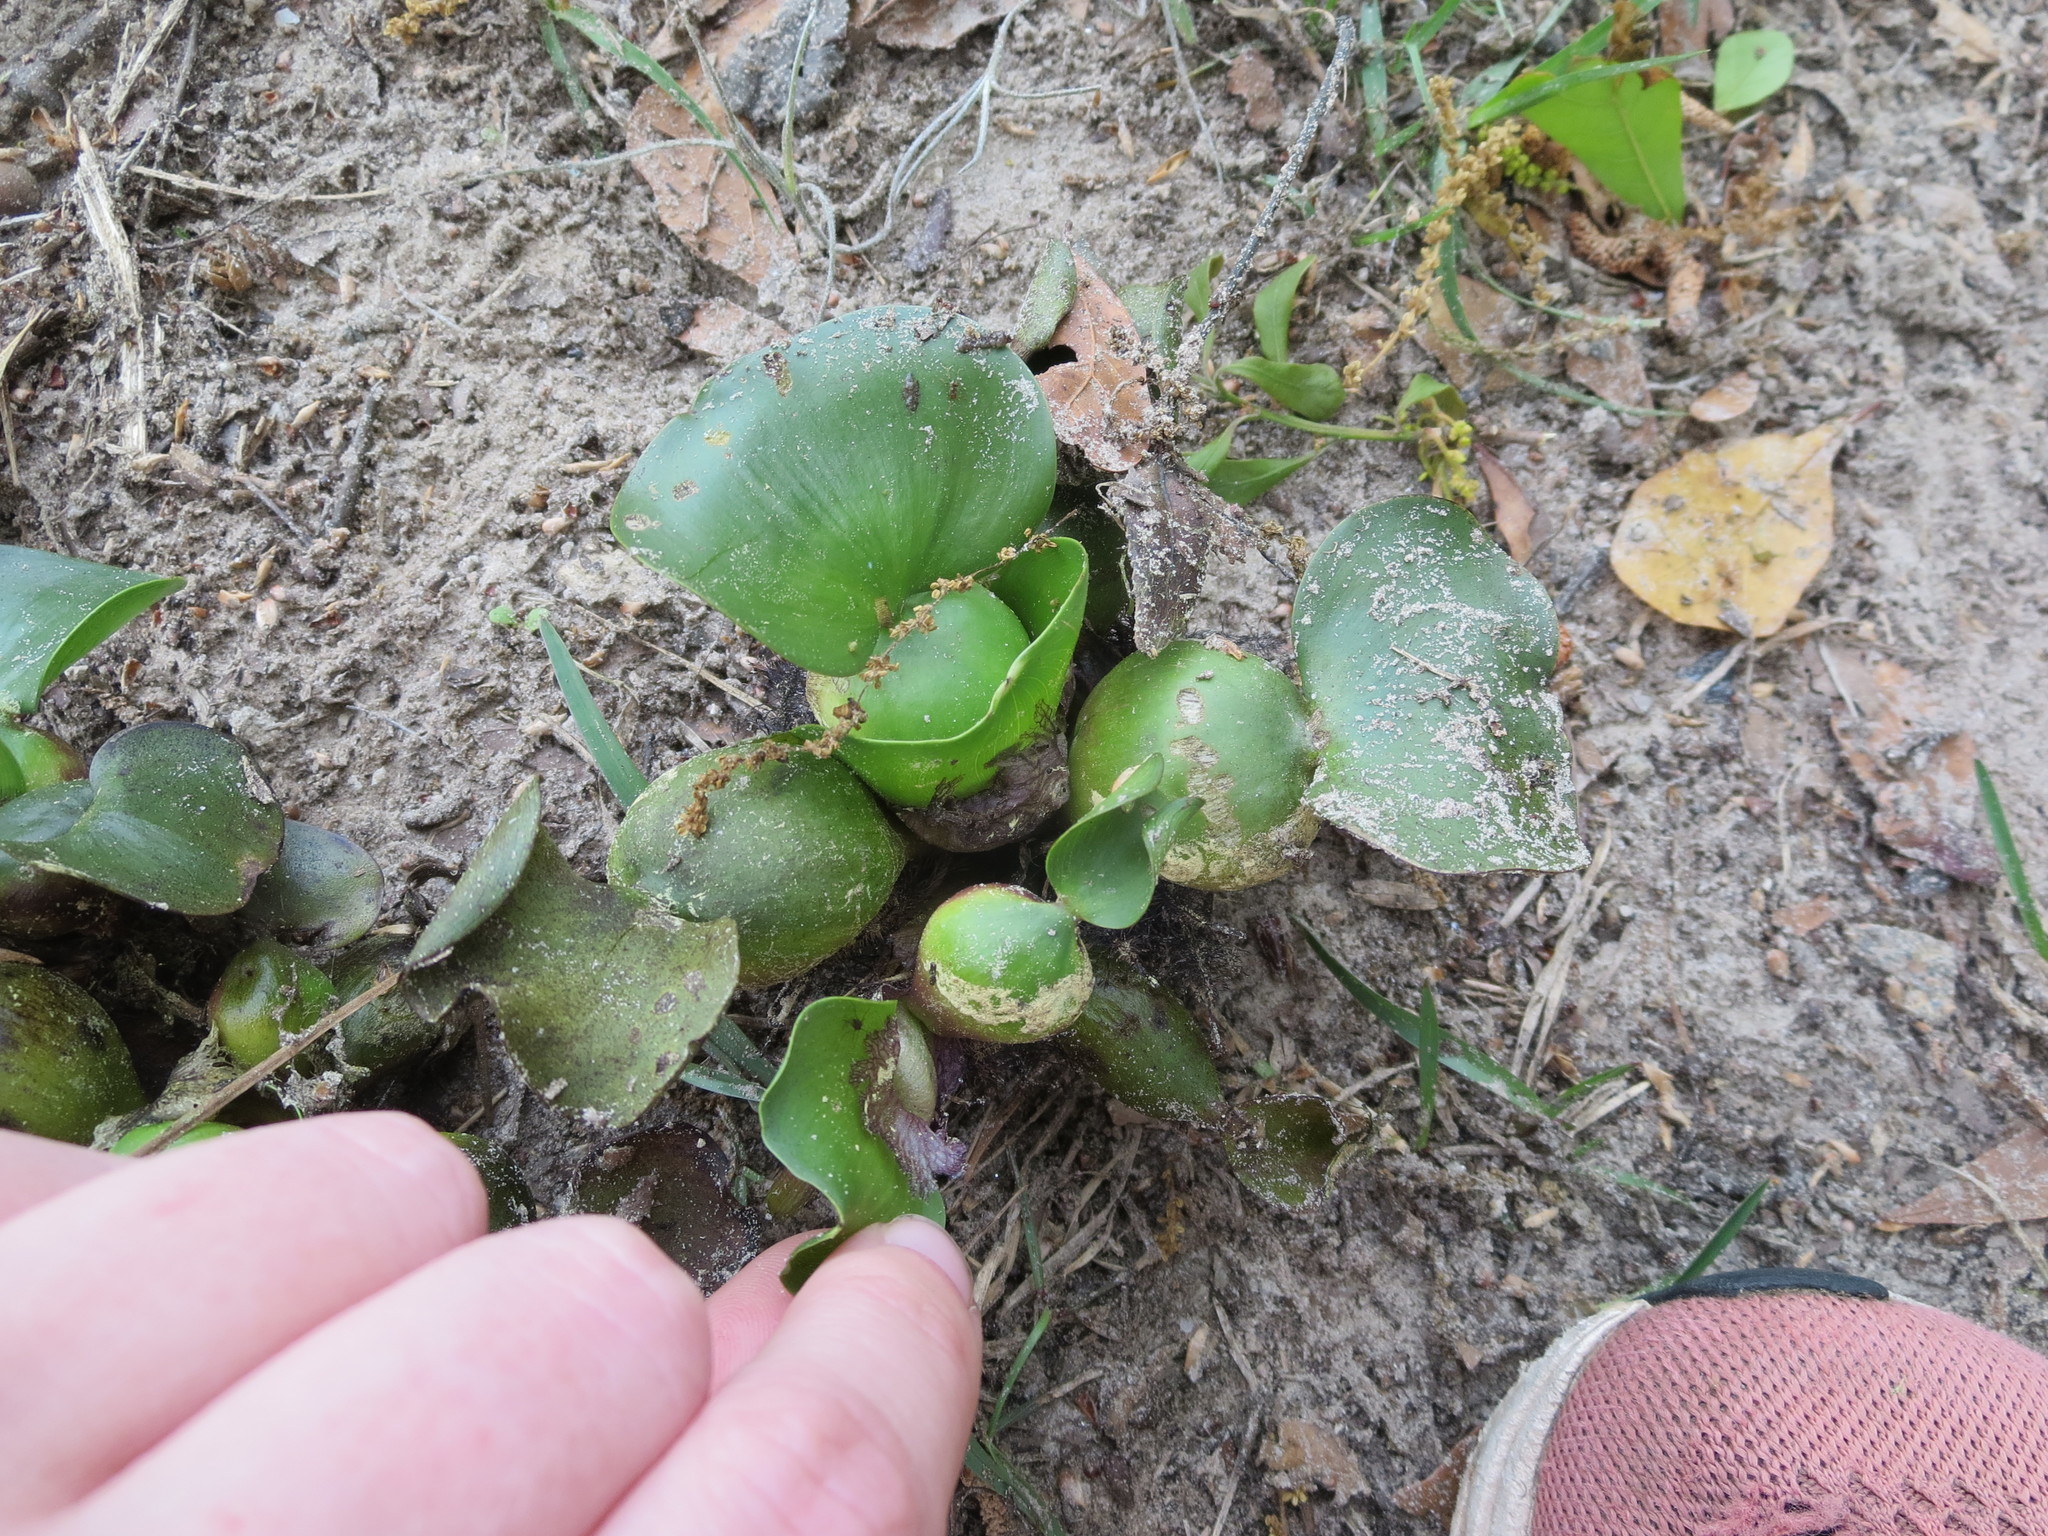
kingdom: Plantae
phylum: Tracheophyta
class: Liliopsida
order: Commelinales
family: Pontederiaceae
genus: Pontederia
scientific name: Pontederia crassipes
